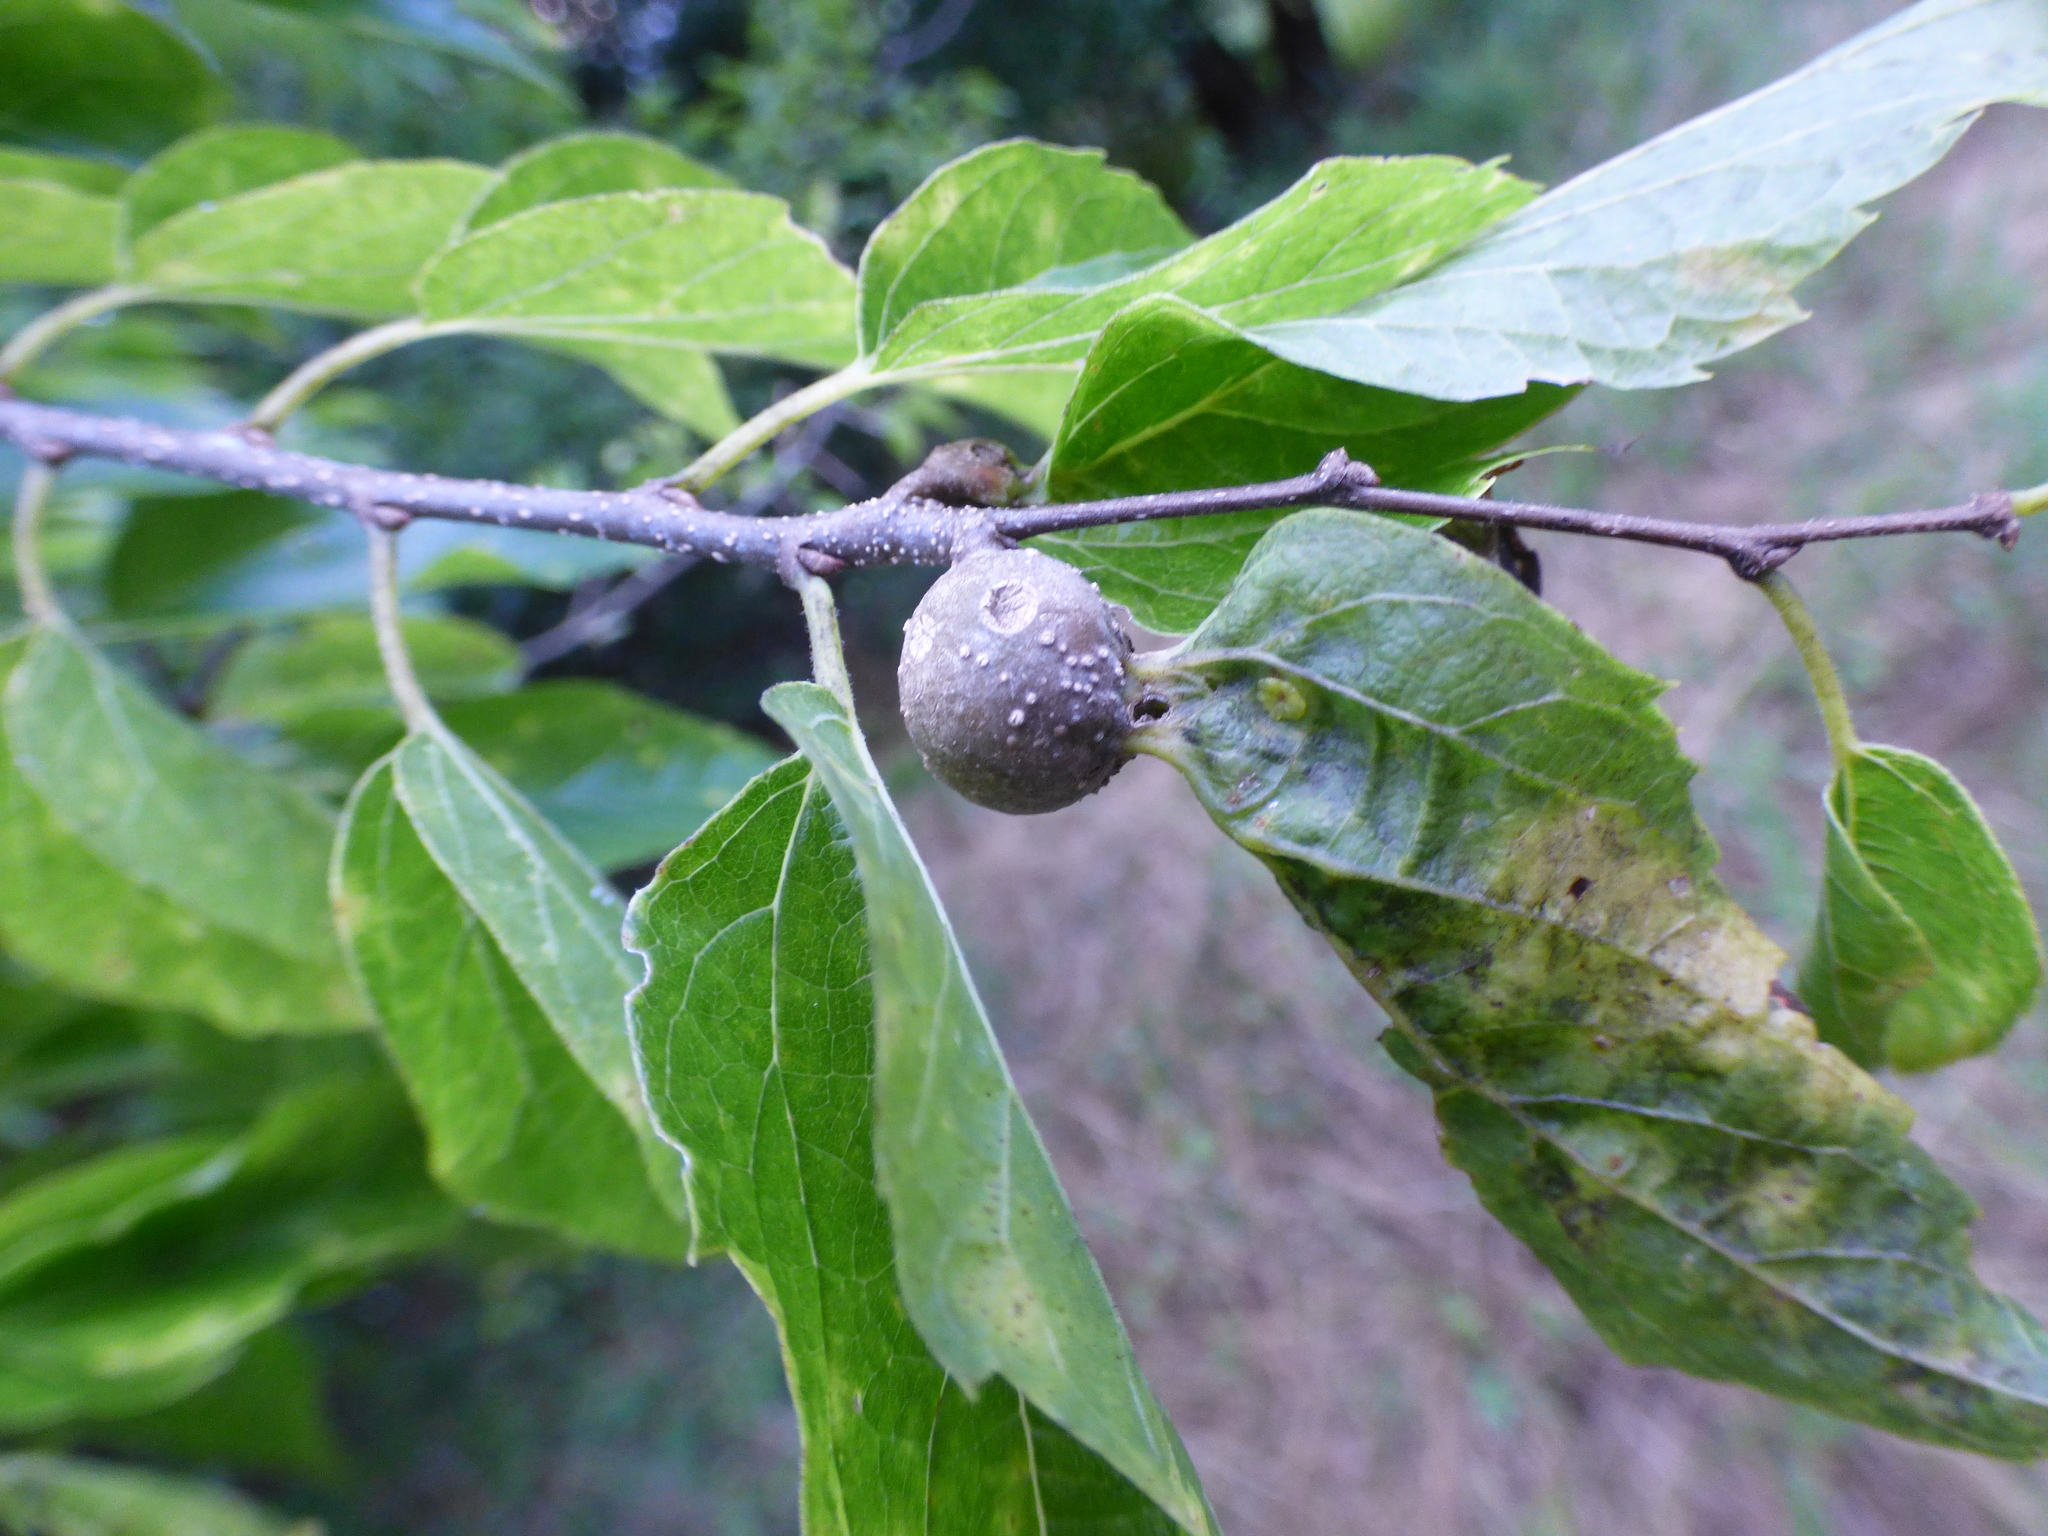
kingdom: Animalia
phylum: Arthropoda
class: Insecta
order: Hemiptera
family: Aphalaridae
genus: Pachypsylla
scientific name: Pachypsylla venusta
